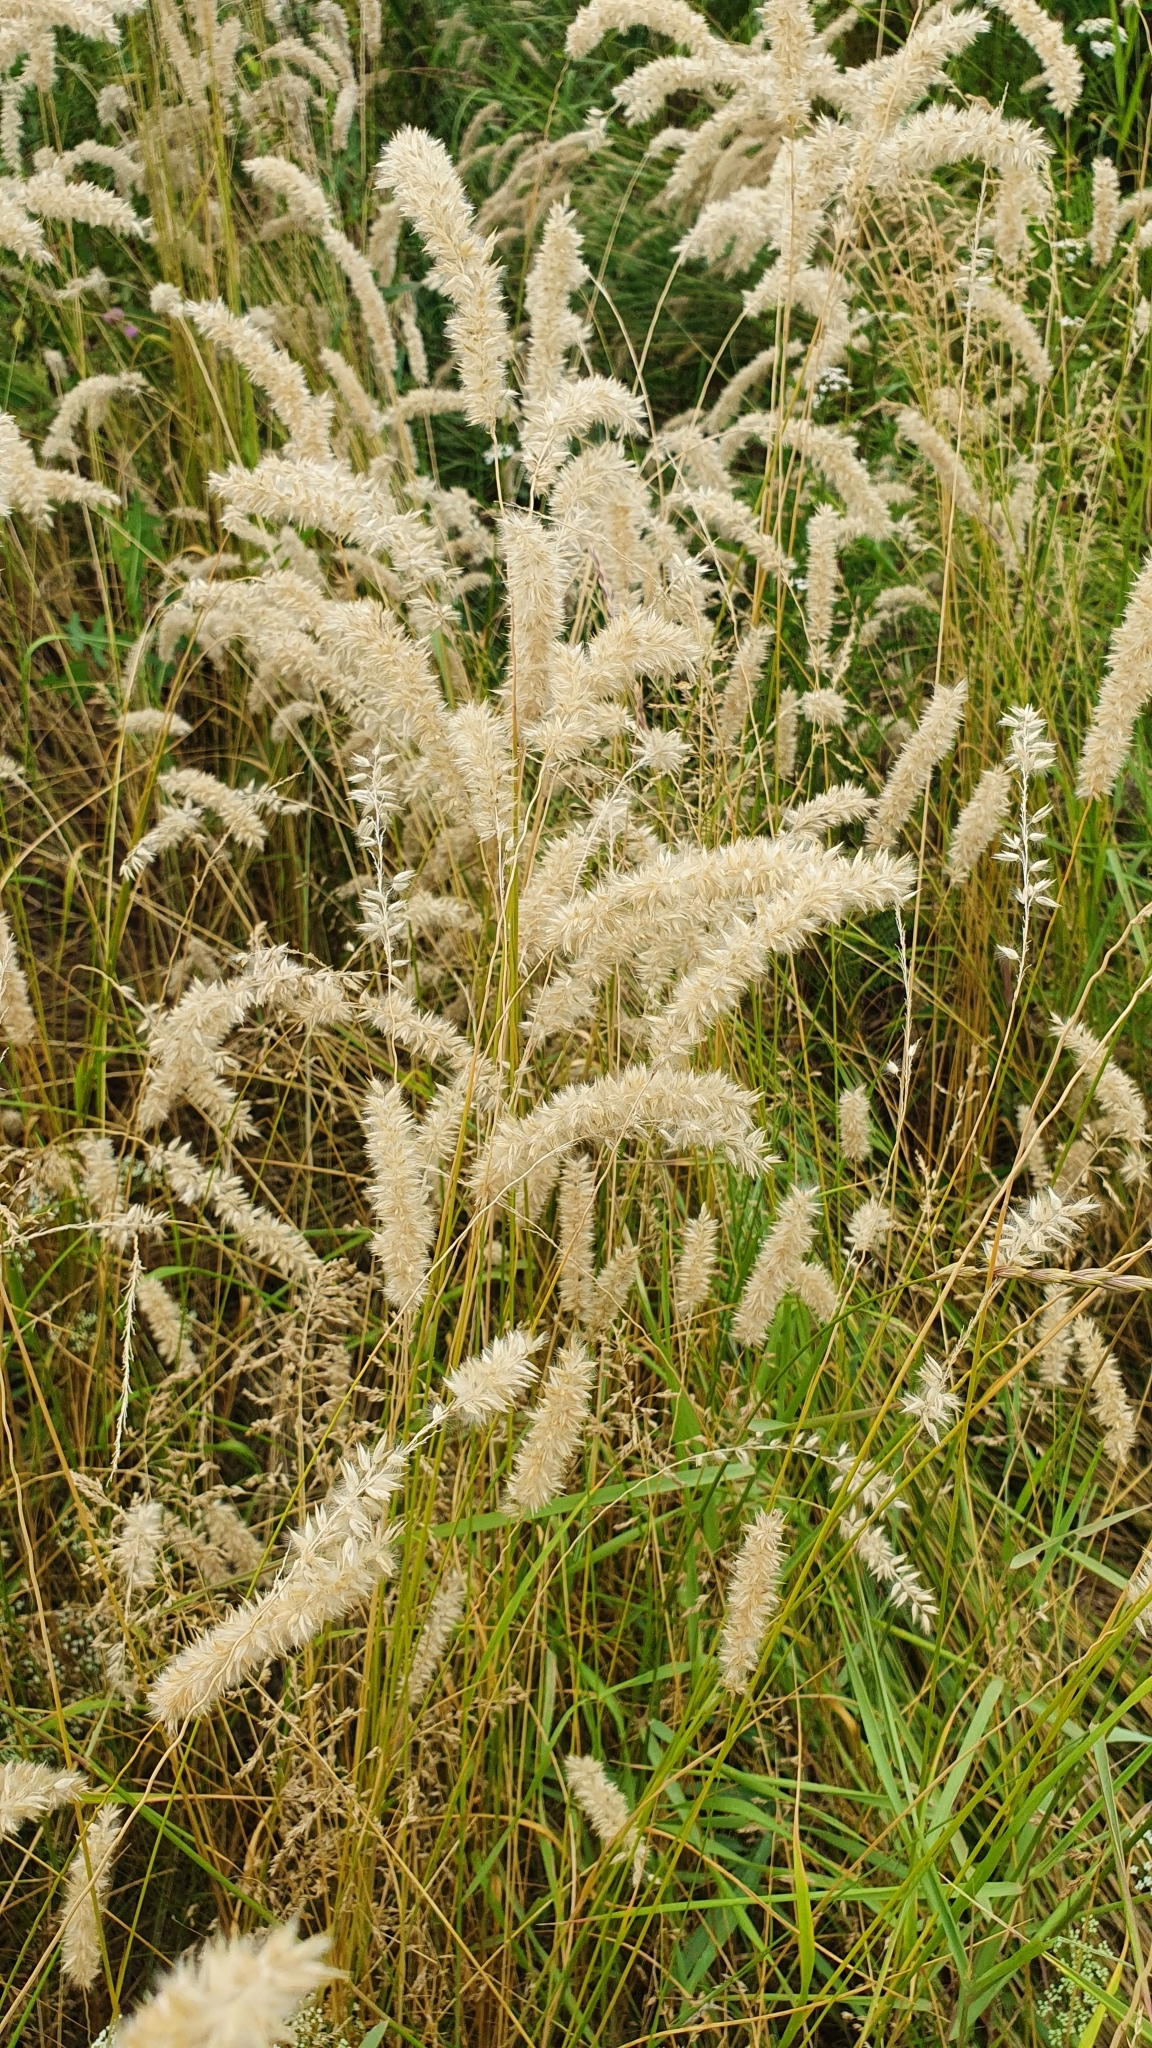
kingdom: Plantae
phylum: Tracheophyta
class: Liliopsida
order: Poales
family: Poaceae
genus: Melica
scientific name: Melica transsilvanica
